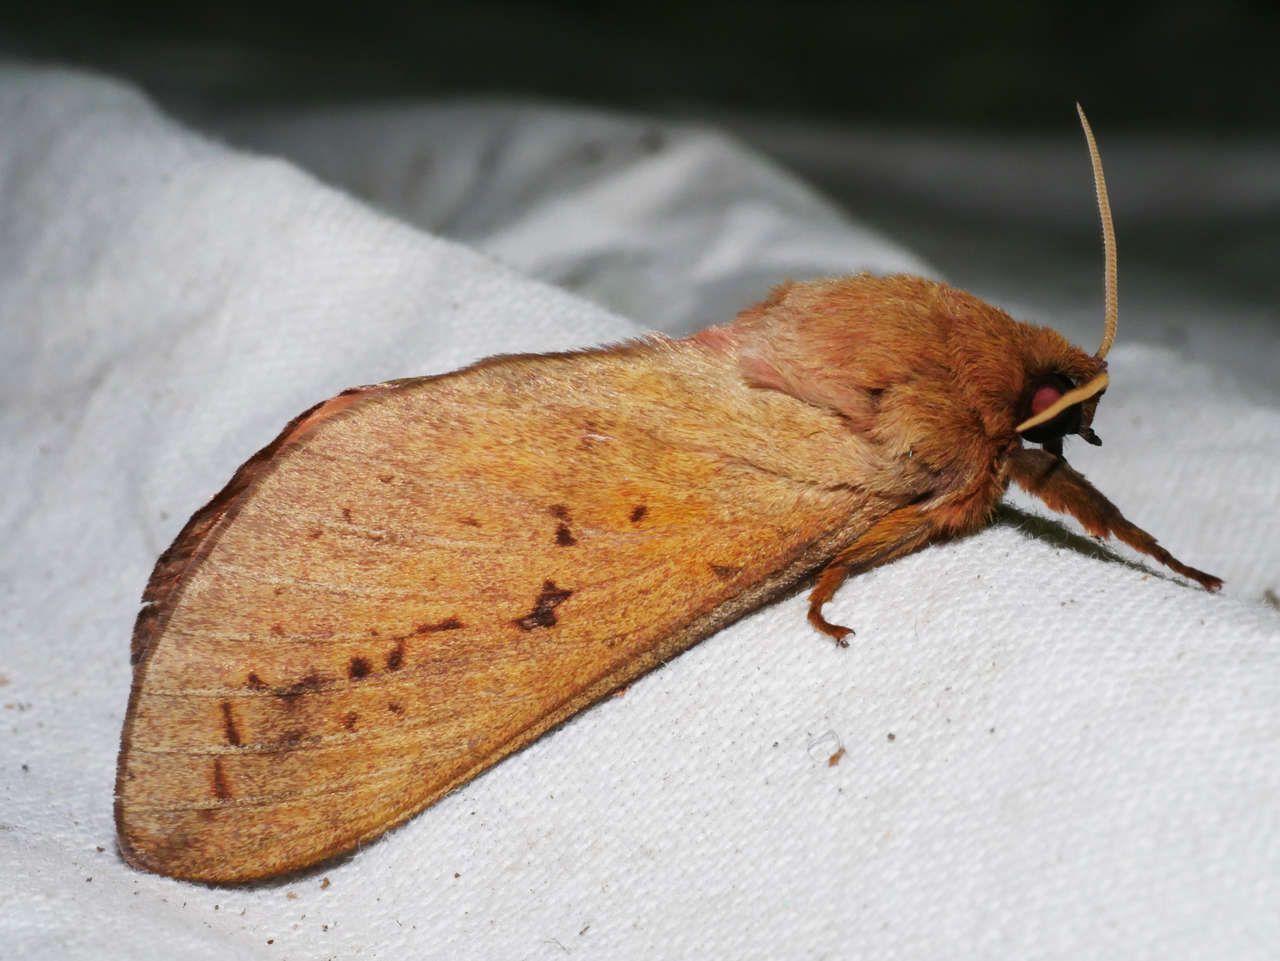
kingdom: Animalia
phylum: Arthropoda
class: Insecta
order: Lepidoptera
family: Hepialidae
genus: Oxycanus
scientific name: Oxycanus sirpus
